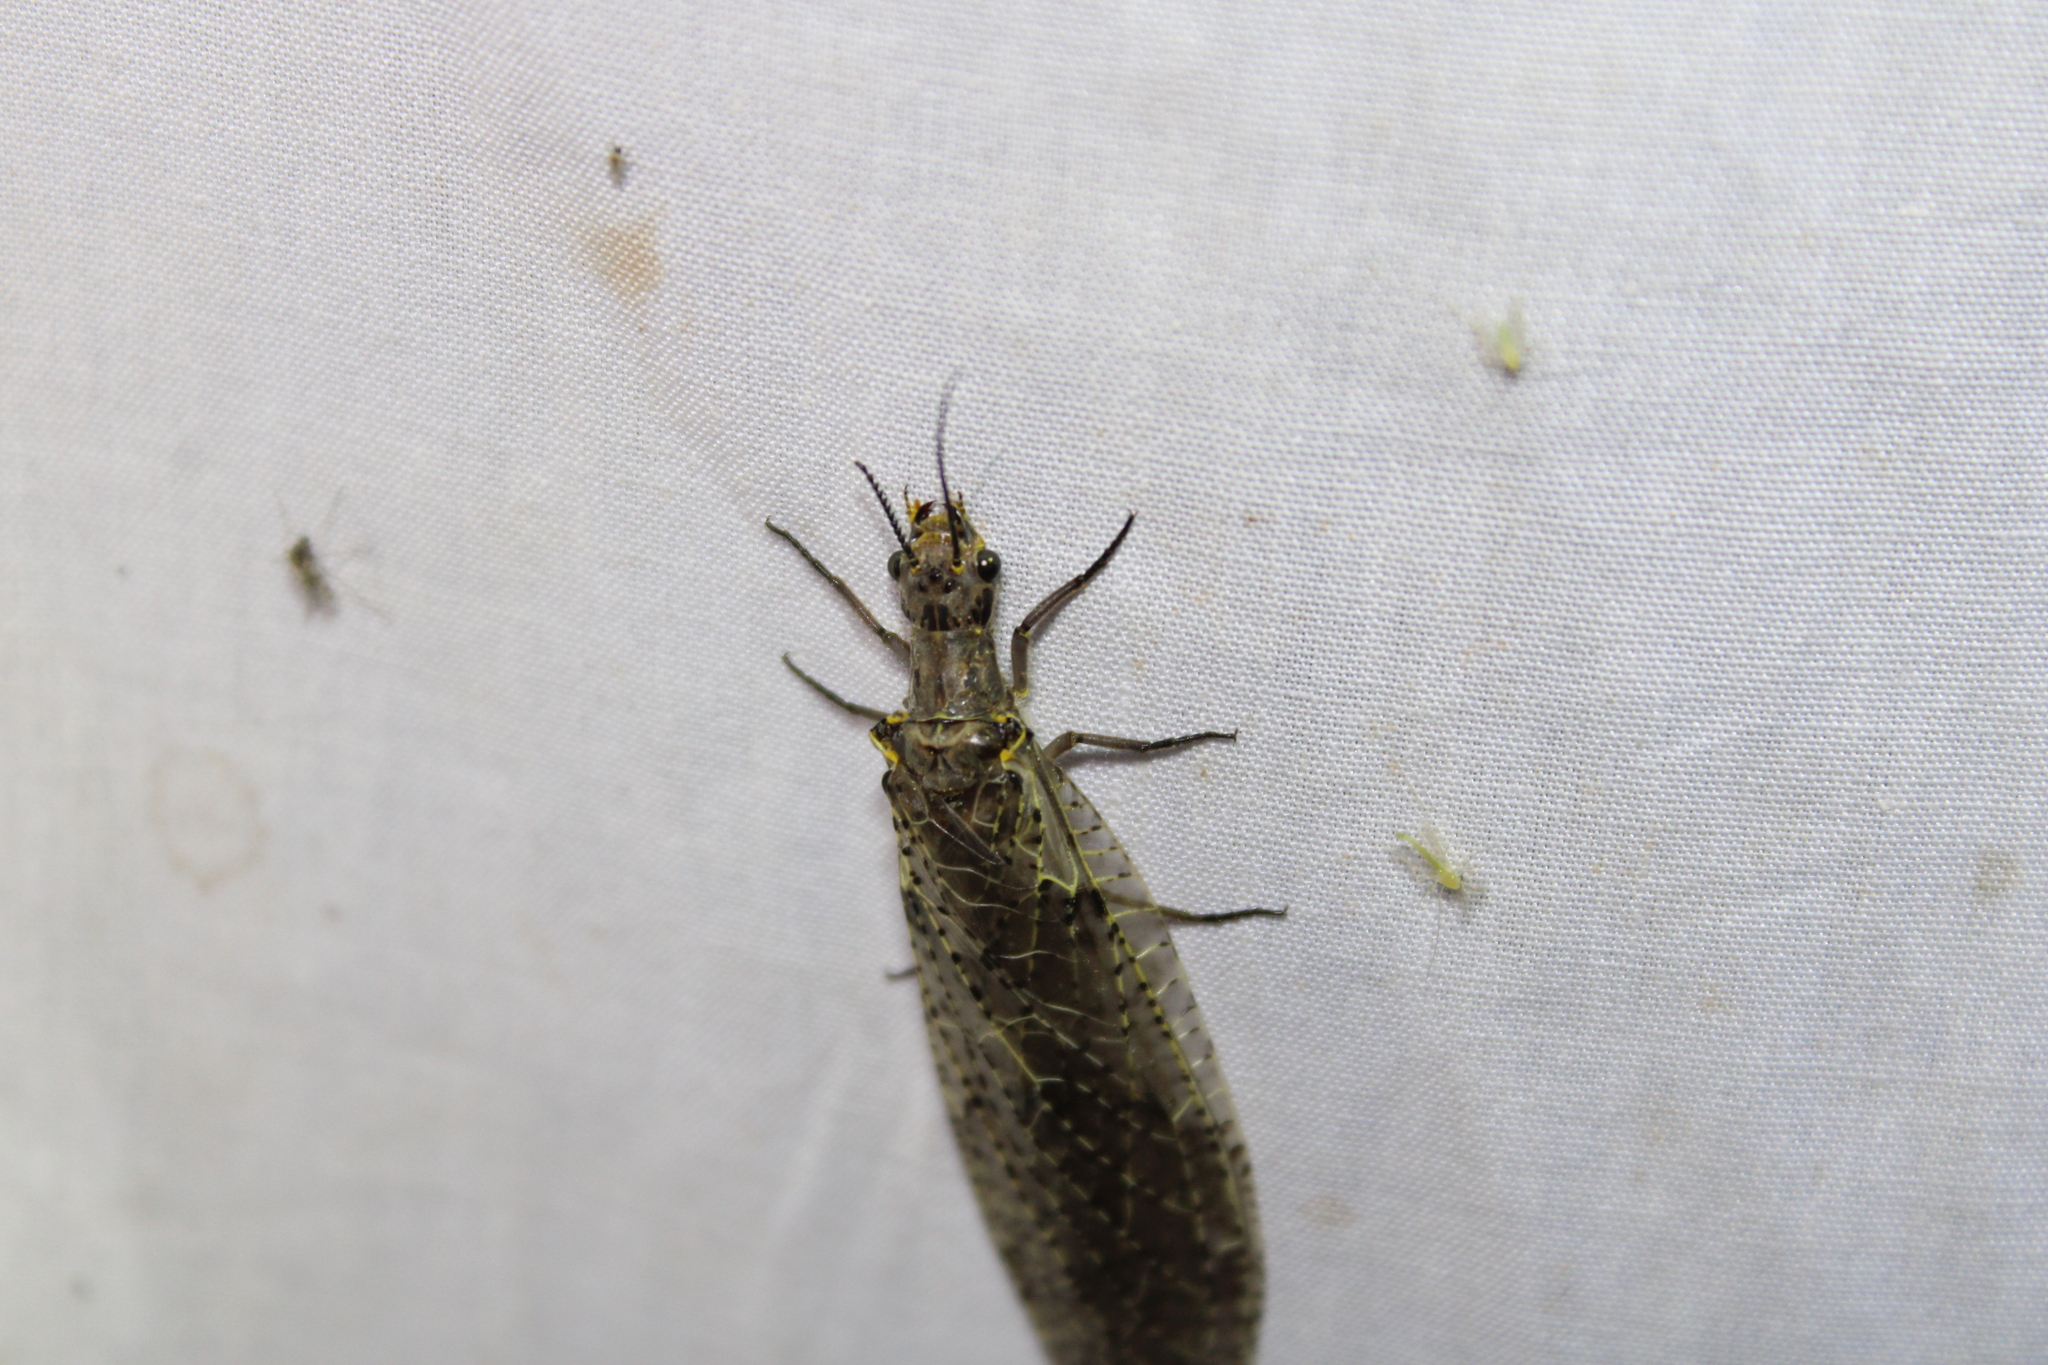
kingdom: Animalia
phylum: Arthropoda
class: Insecta
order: Megaloptera
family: Corydalidae
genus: Chauliodes
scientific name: Chauliodes rastricornis
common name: Spring fishfly
